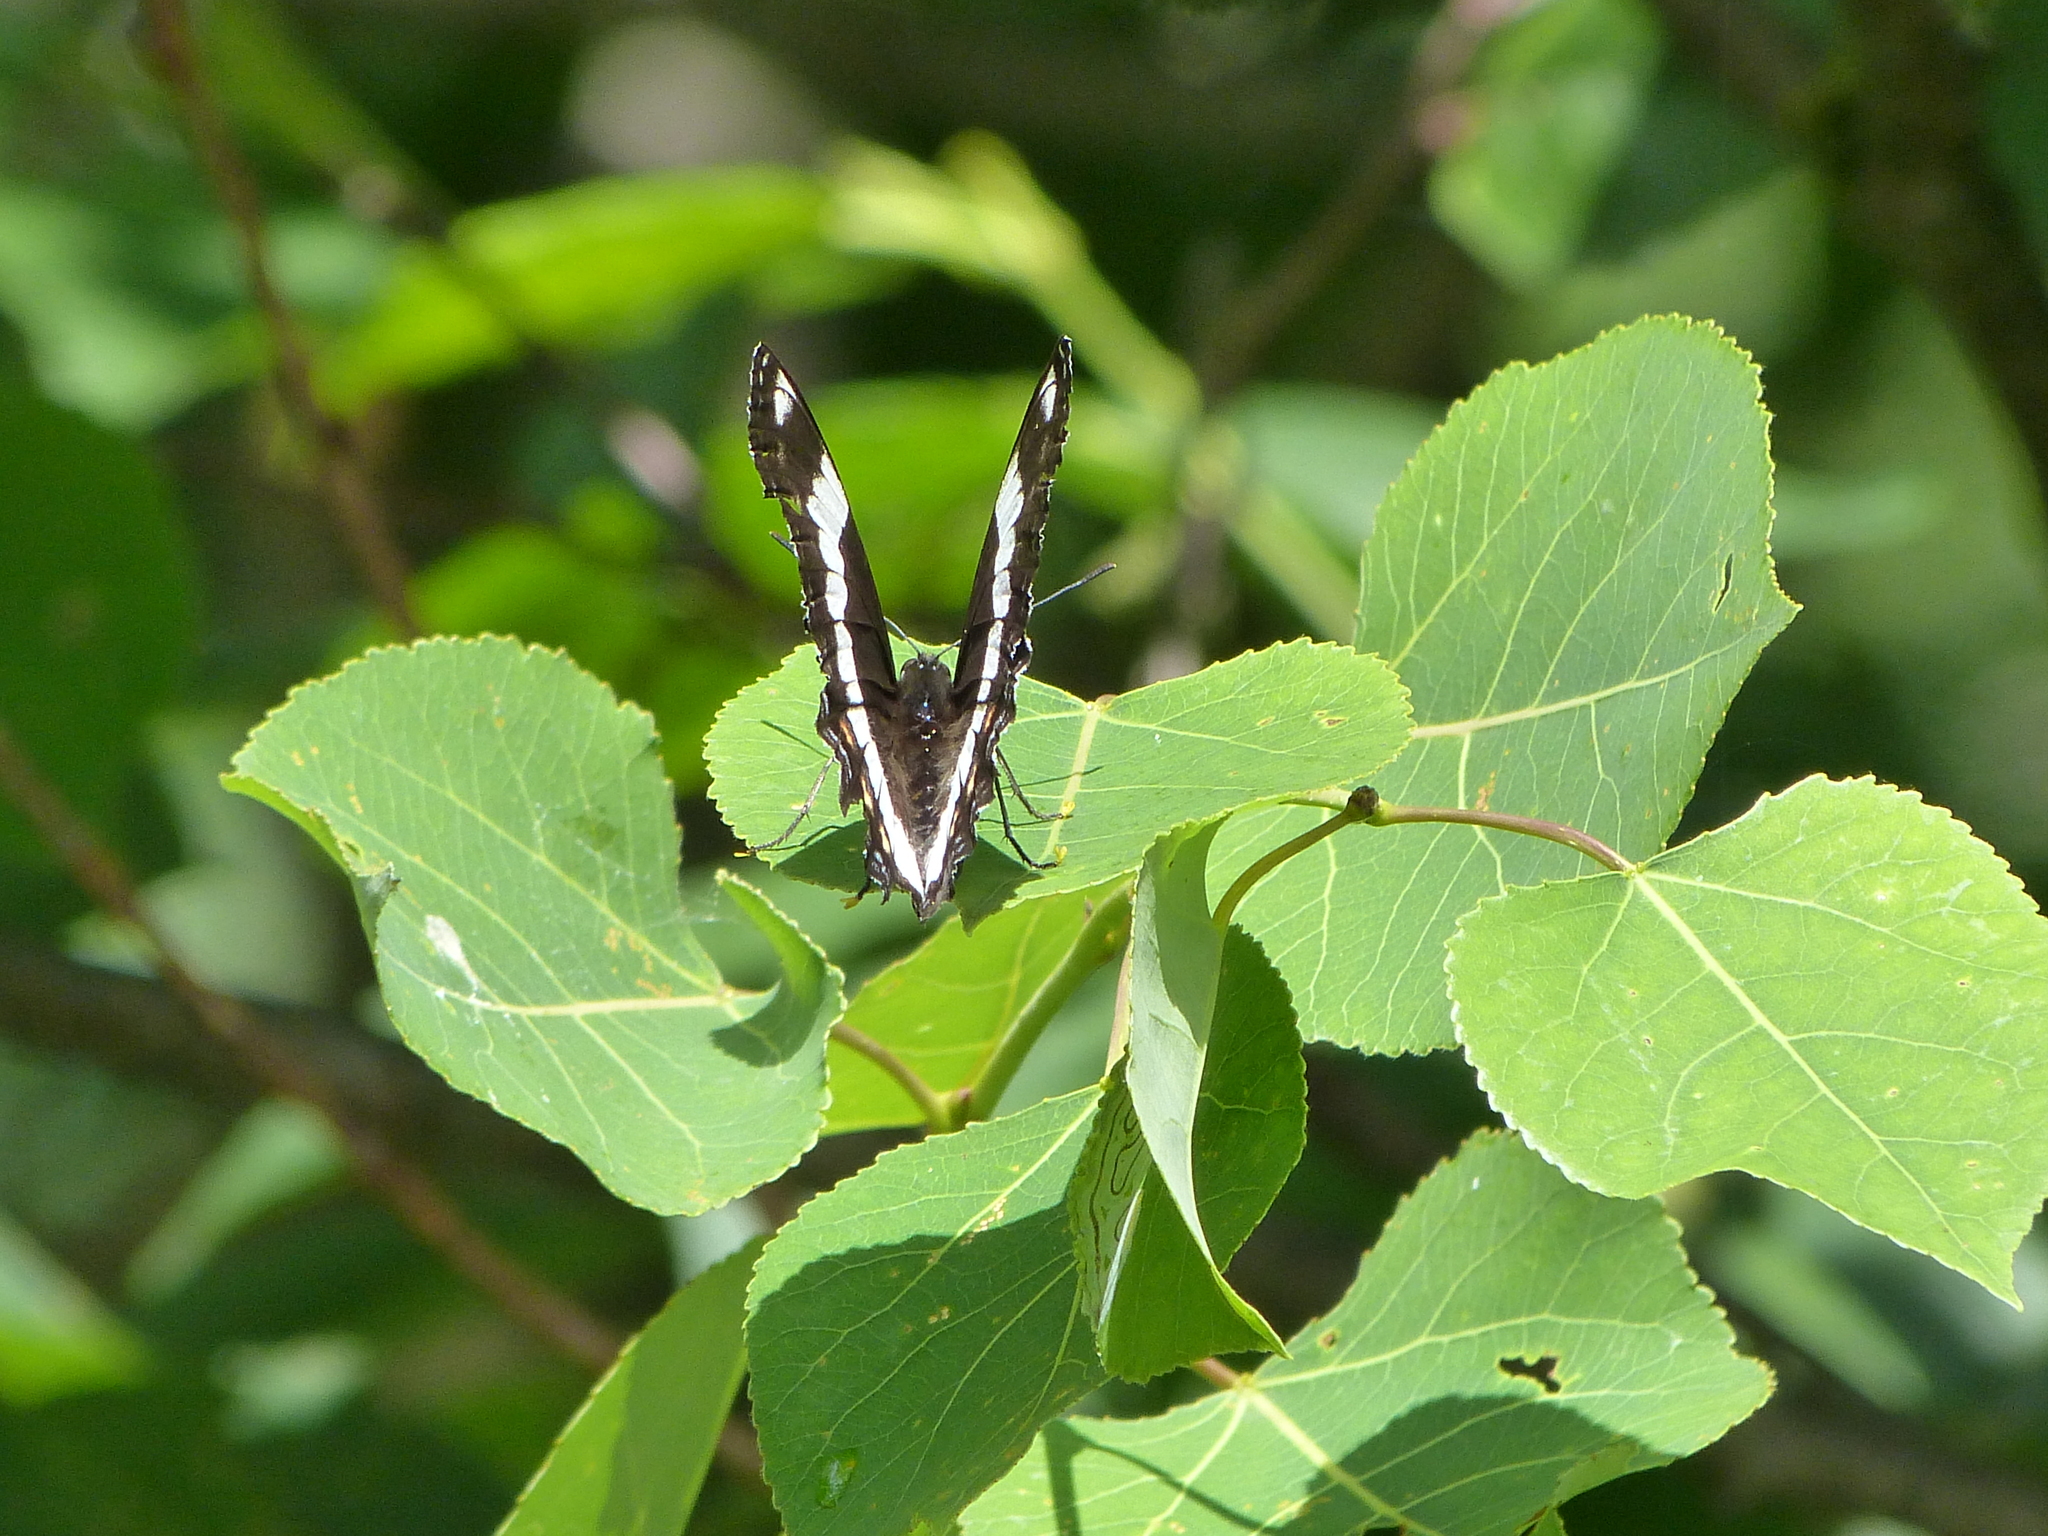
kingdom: Animalia
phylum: Arthropoda
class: Insecta
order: Lepidoptera
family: Nymphalidae
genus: Limenitis
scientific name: Limenitis arthemis
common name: Red-spotted admiral
